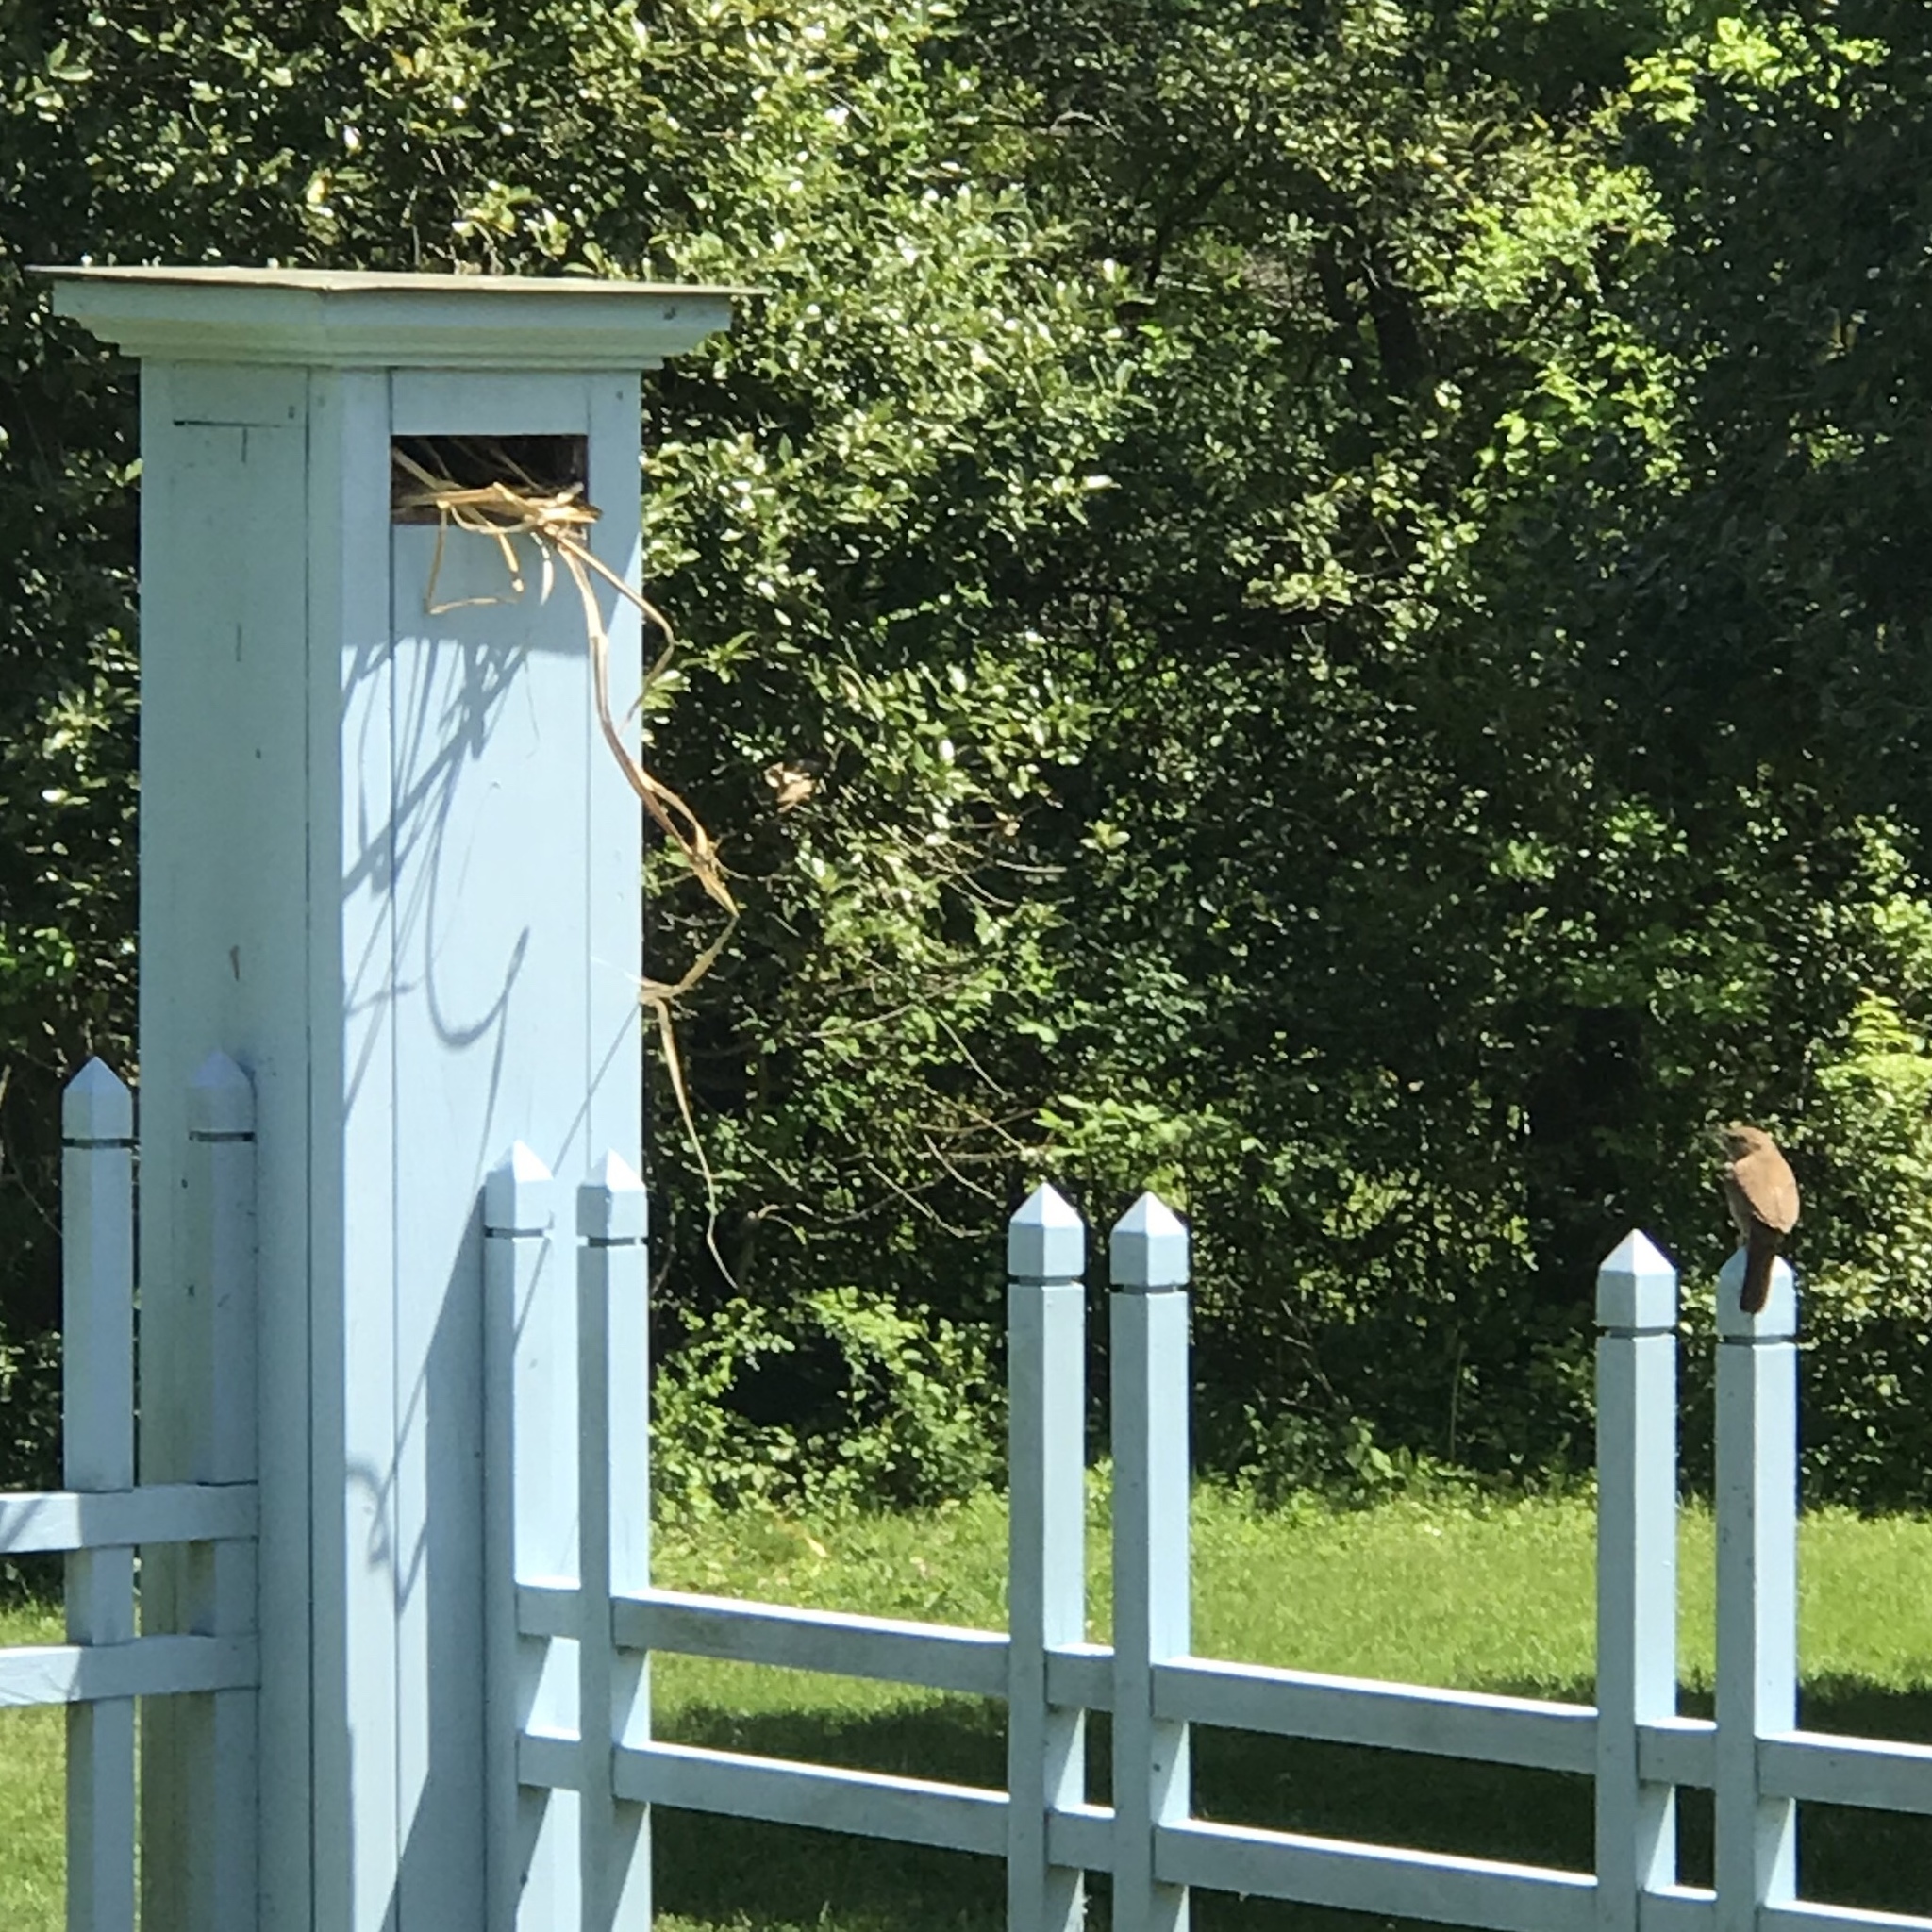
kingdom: Animalia
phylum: Chordata
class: Aves
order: Passeriformes
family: Troglodytidae
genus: Troglodytes
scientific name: Troglodytes aedon
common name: House wren
